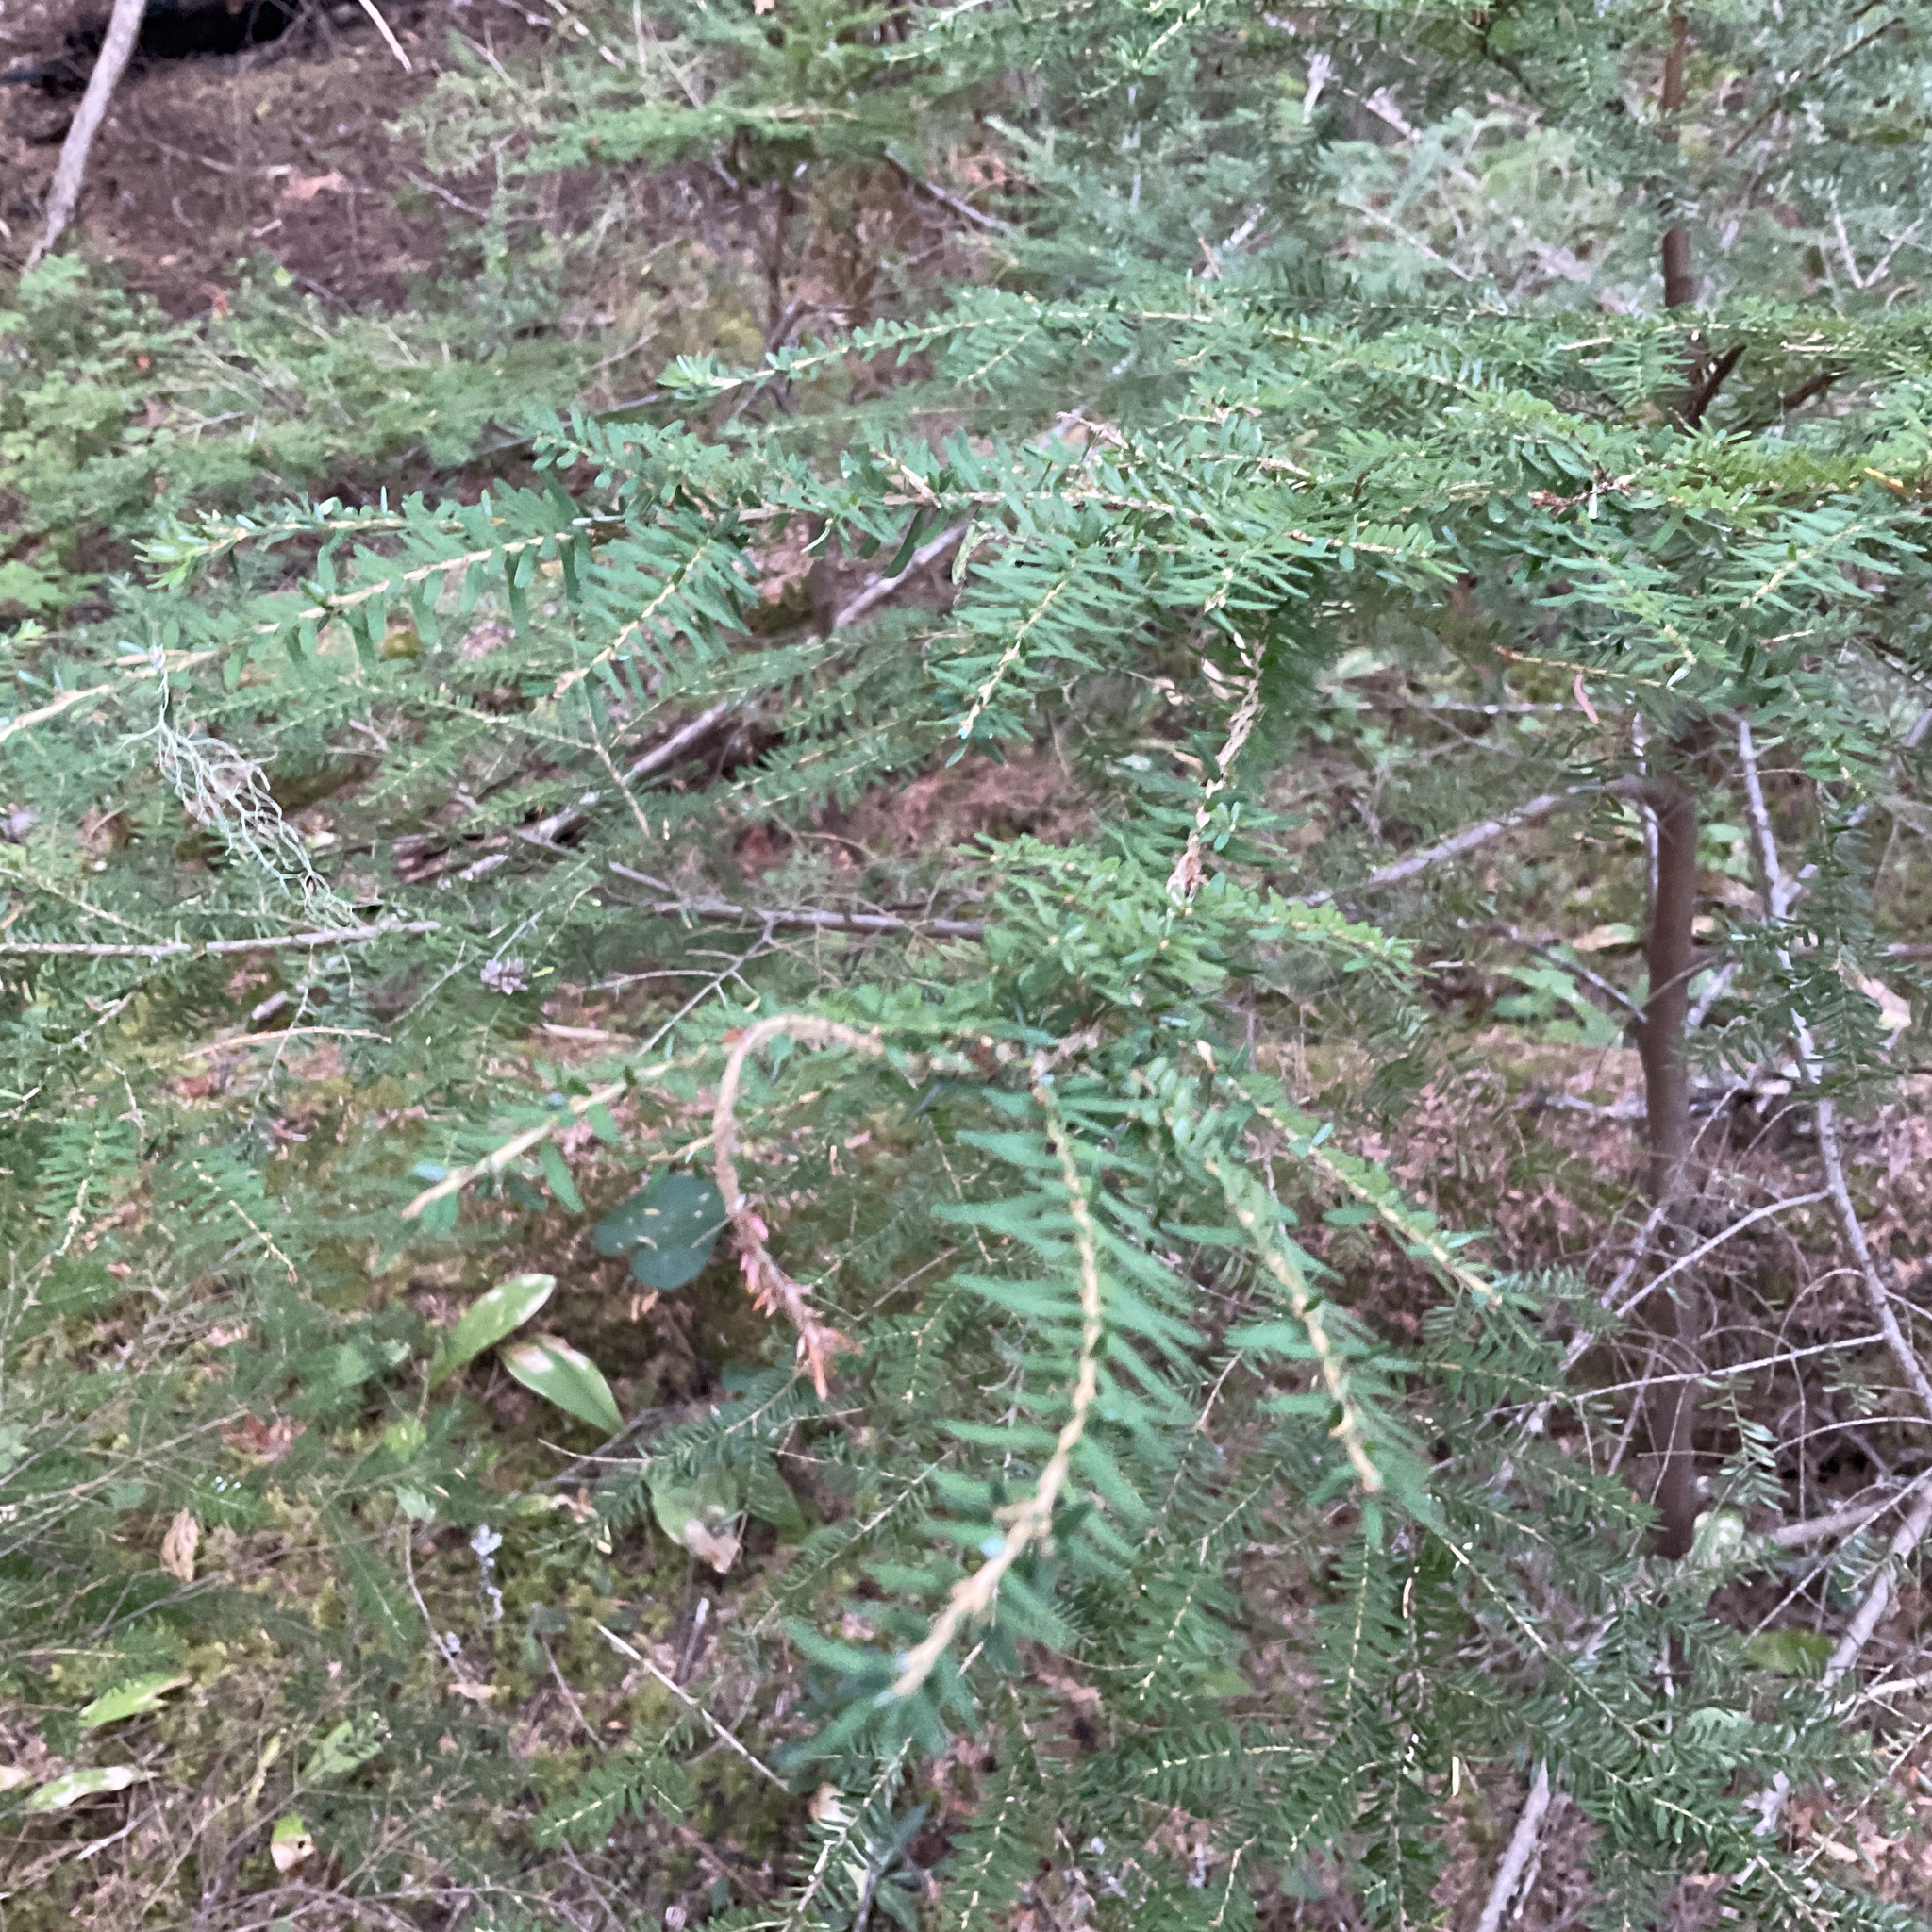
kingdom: Plantae
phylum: Tracheophyta
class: Pinopsida
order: Pinales
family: Pinaceae
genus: Tsuga
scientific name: Tsuga heterophylla
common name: Western hemlock
